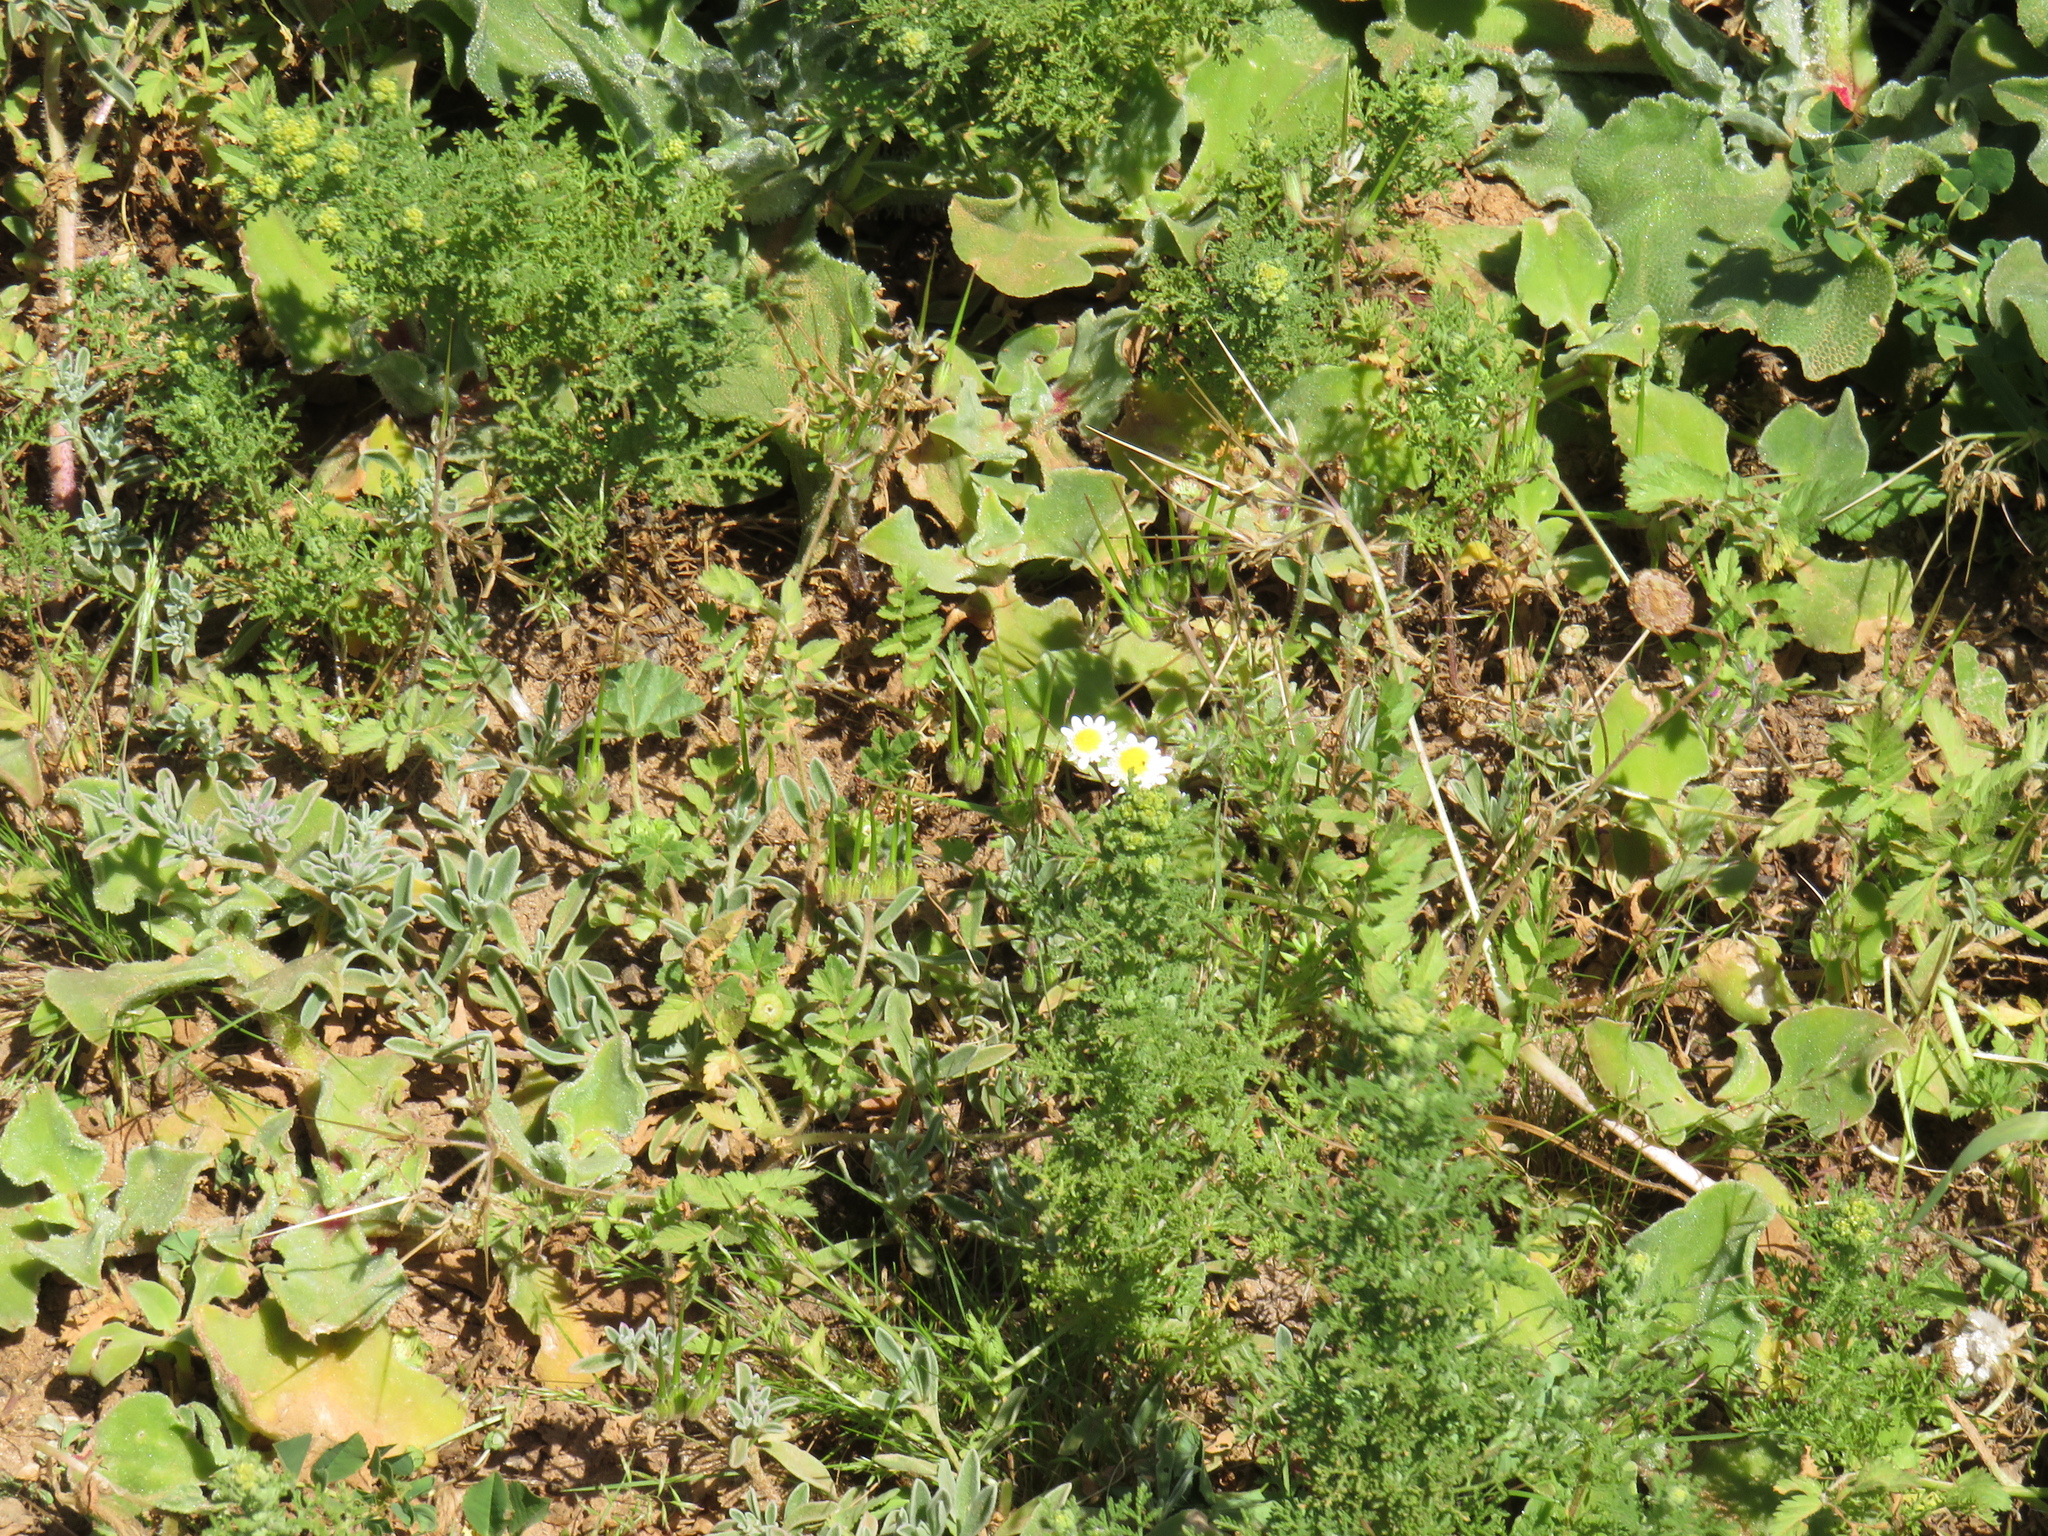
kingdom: Plantae
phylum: Tracheophyta
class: Magnoliopsida
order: Geraniales
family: Geraniaceae
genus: Erodium
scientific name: Erodium moschatum
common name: Musk stork's-bill
